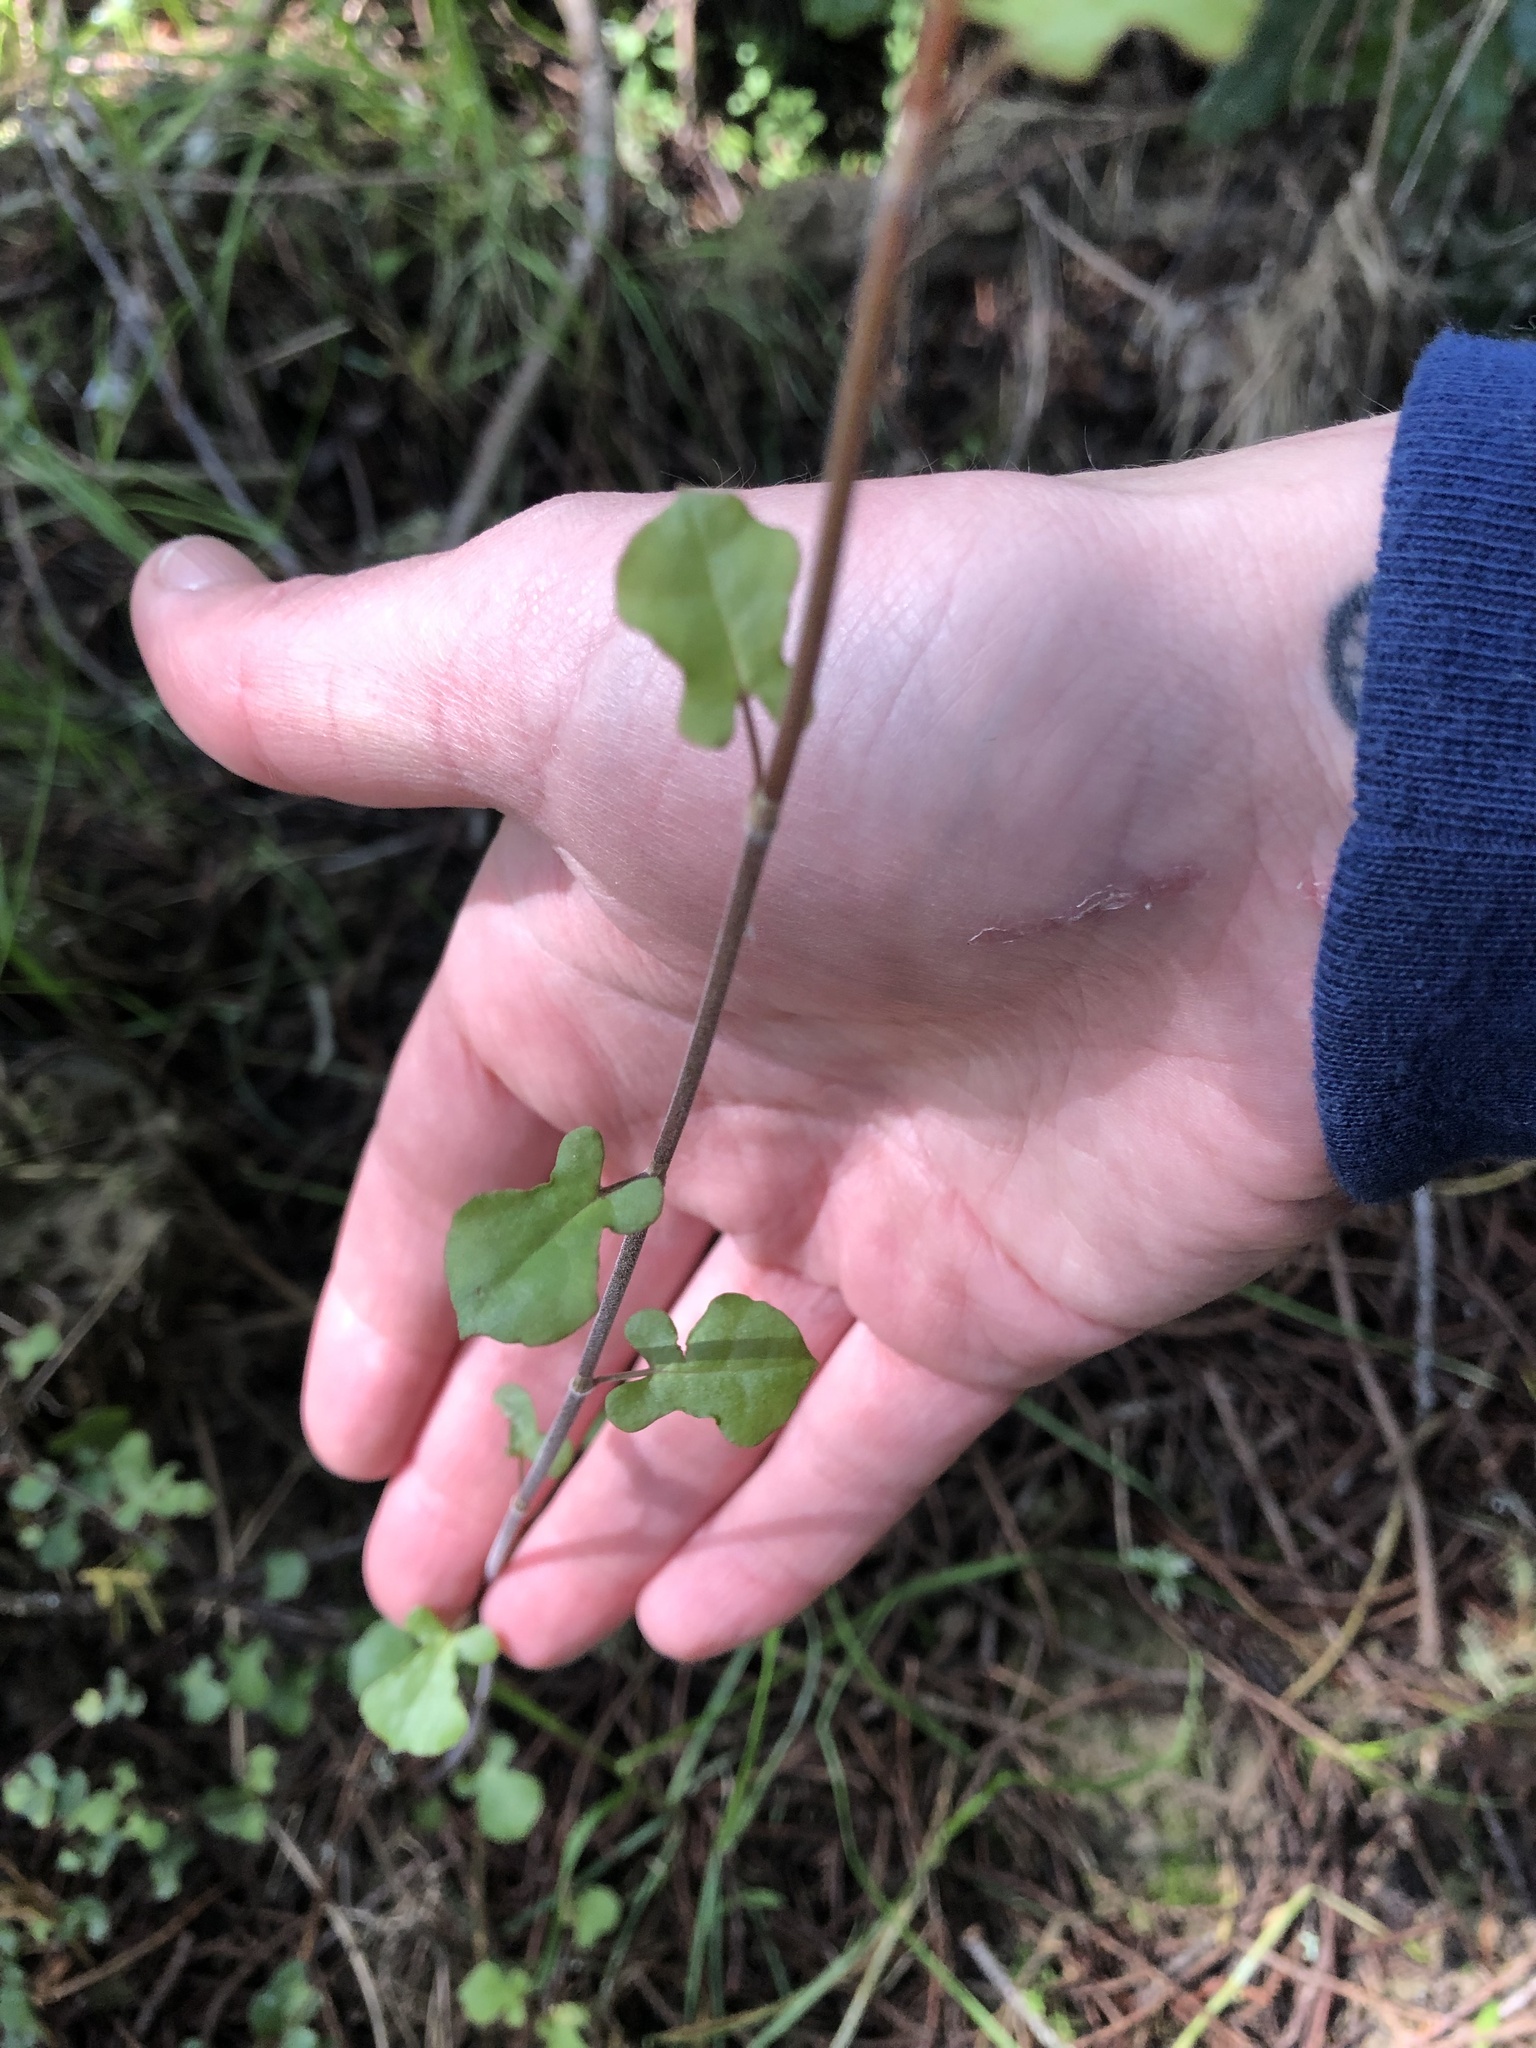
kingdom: Plantae
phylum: Tracheophyta
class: Magnoliopsida
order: Caryophyllales
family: Polygonaceae
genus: Muehlenbeckia
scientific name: Muehlenbeckia australis
